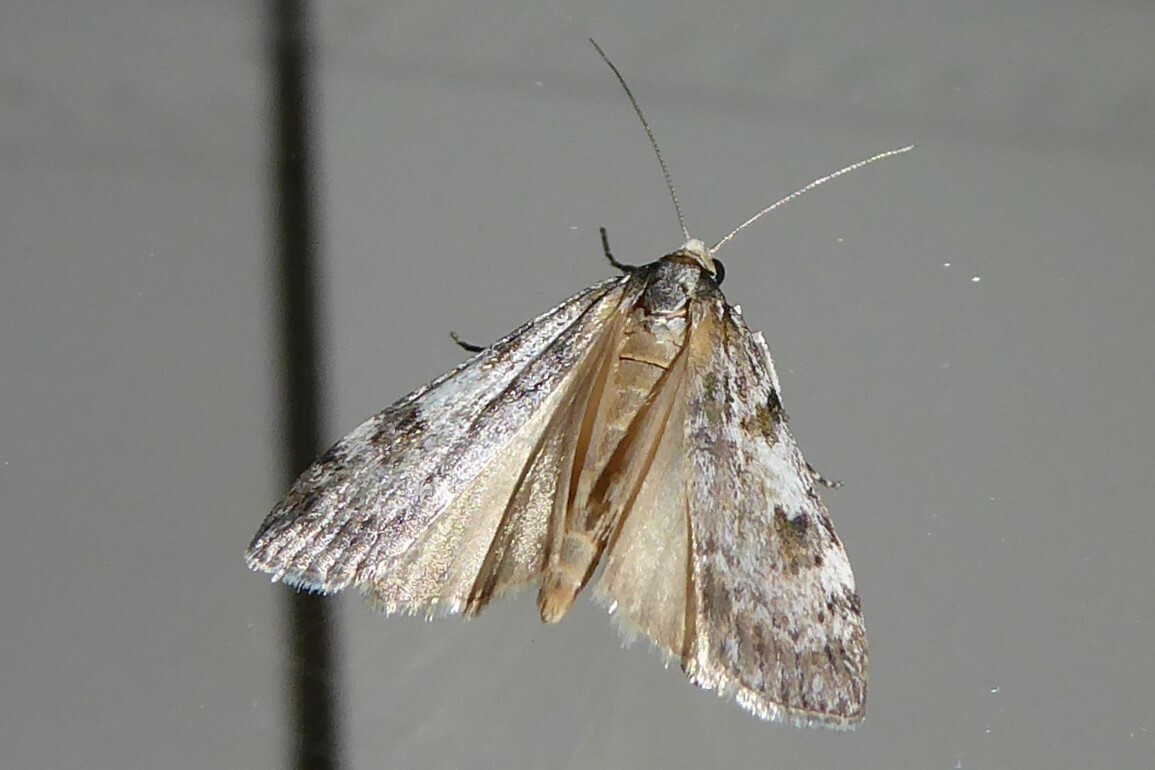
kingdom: Animalia
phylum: Arthropoda
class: Insecta
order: Lepidoptera
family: Crambidae
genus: Scoparia
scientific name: Scoparia halopis
